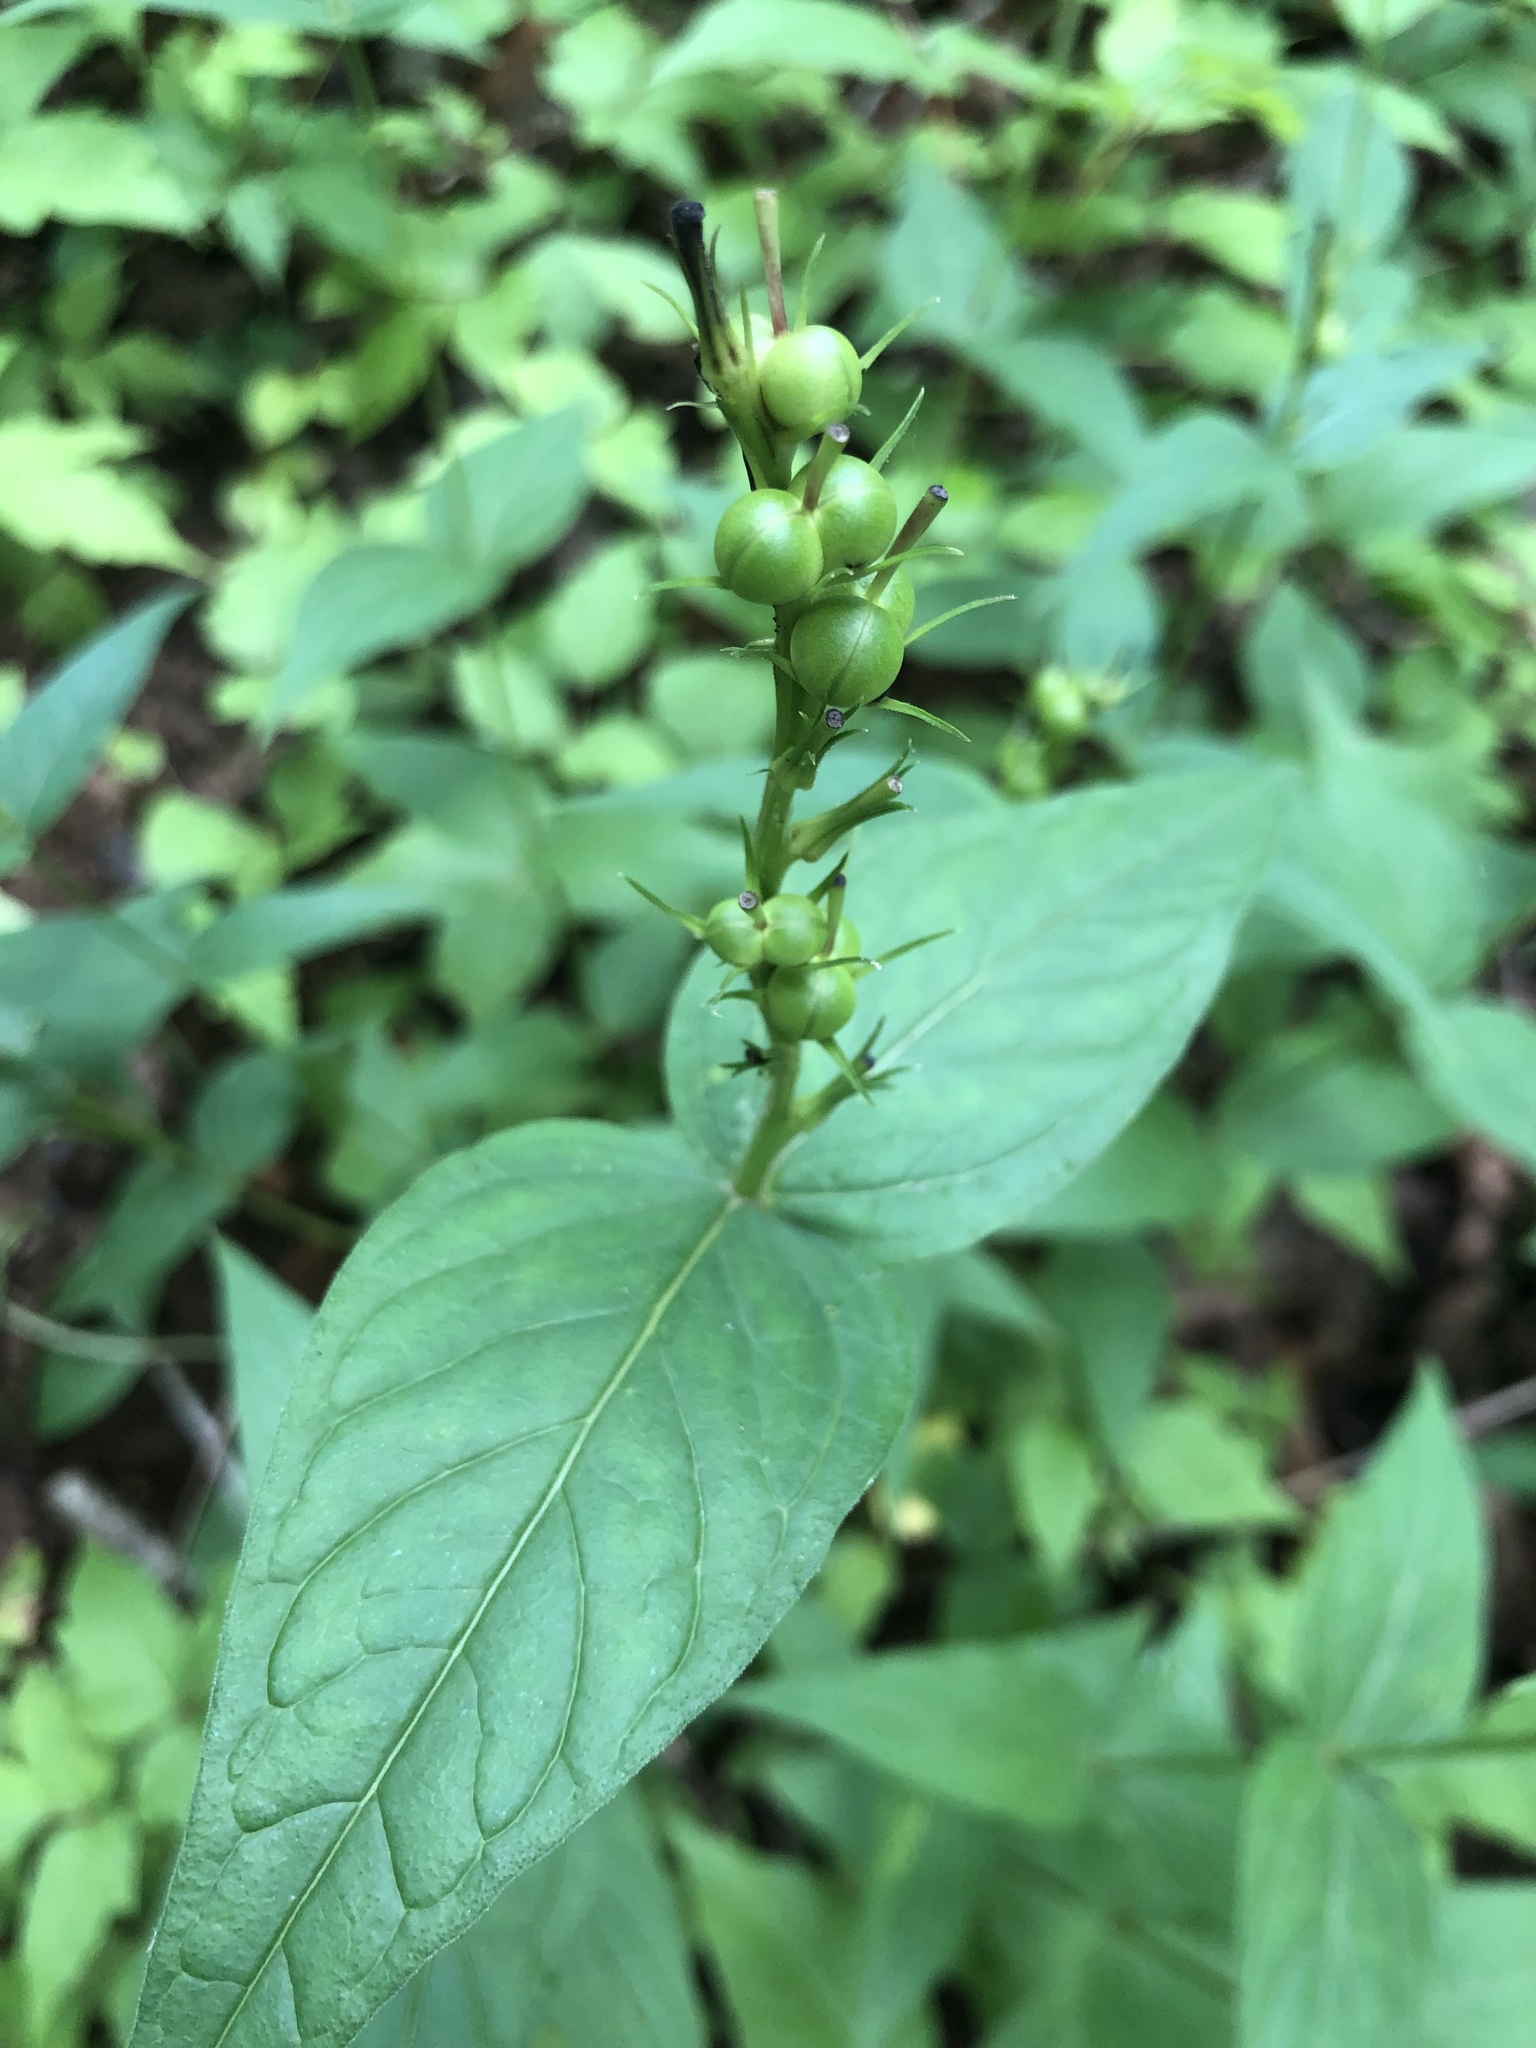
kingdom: Plantae
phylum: Tracheophyta
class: Magnoliopsida
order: Gentianales
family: Loganiaceae
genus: Spigelia
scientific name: Spigelia marilandica
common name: Indian-pink
